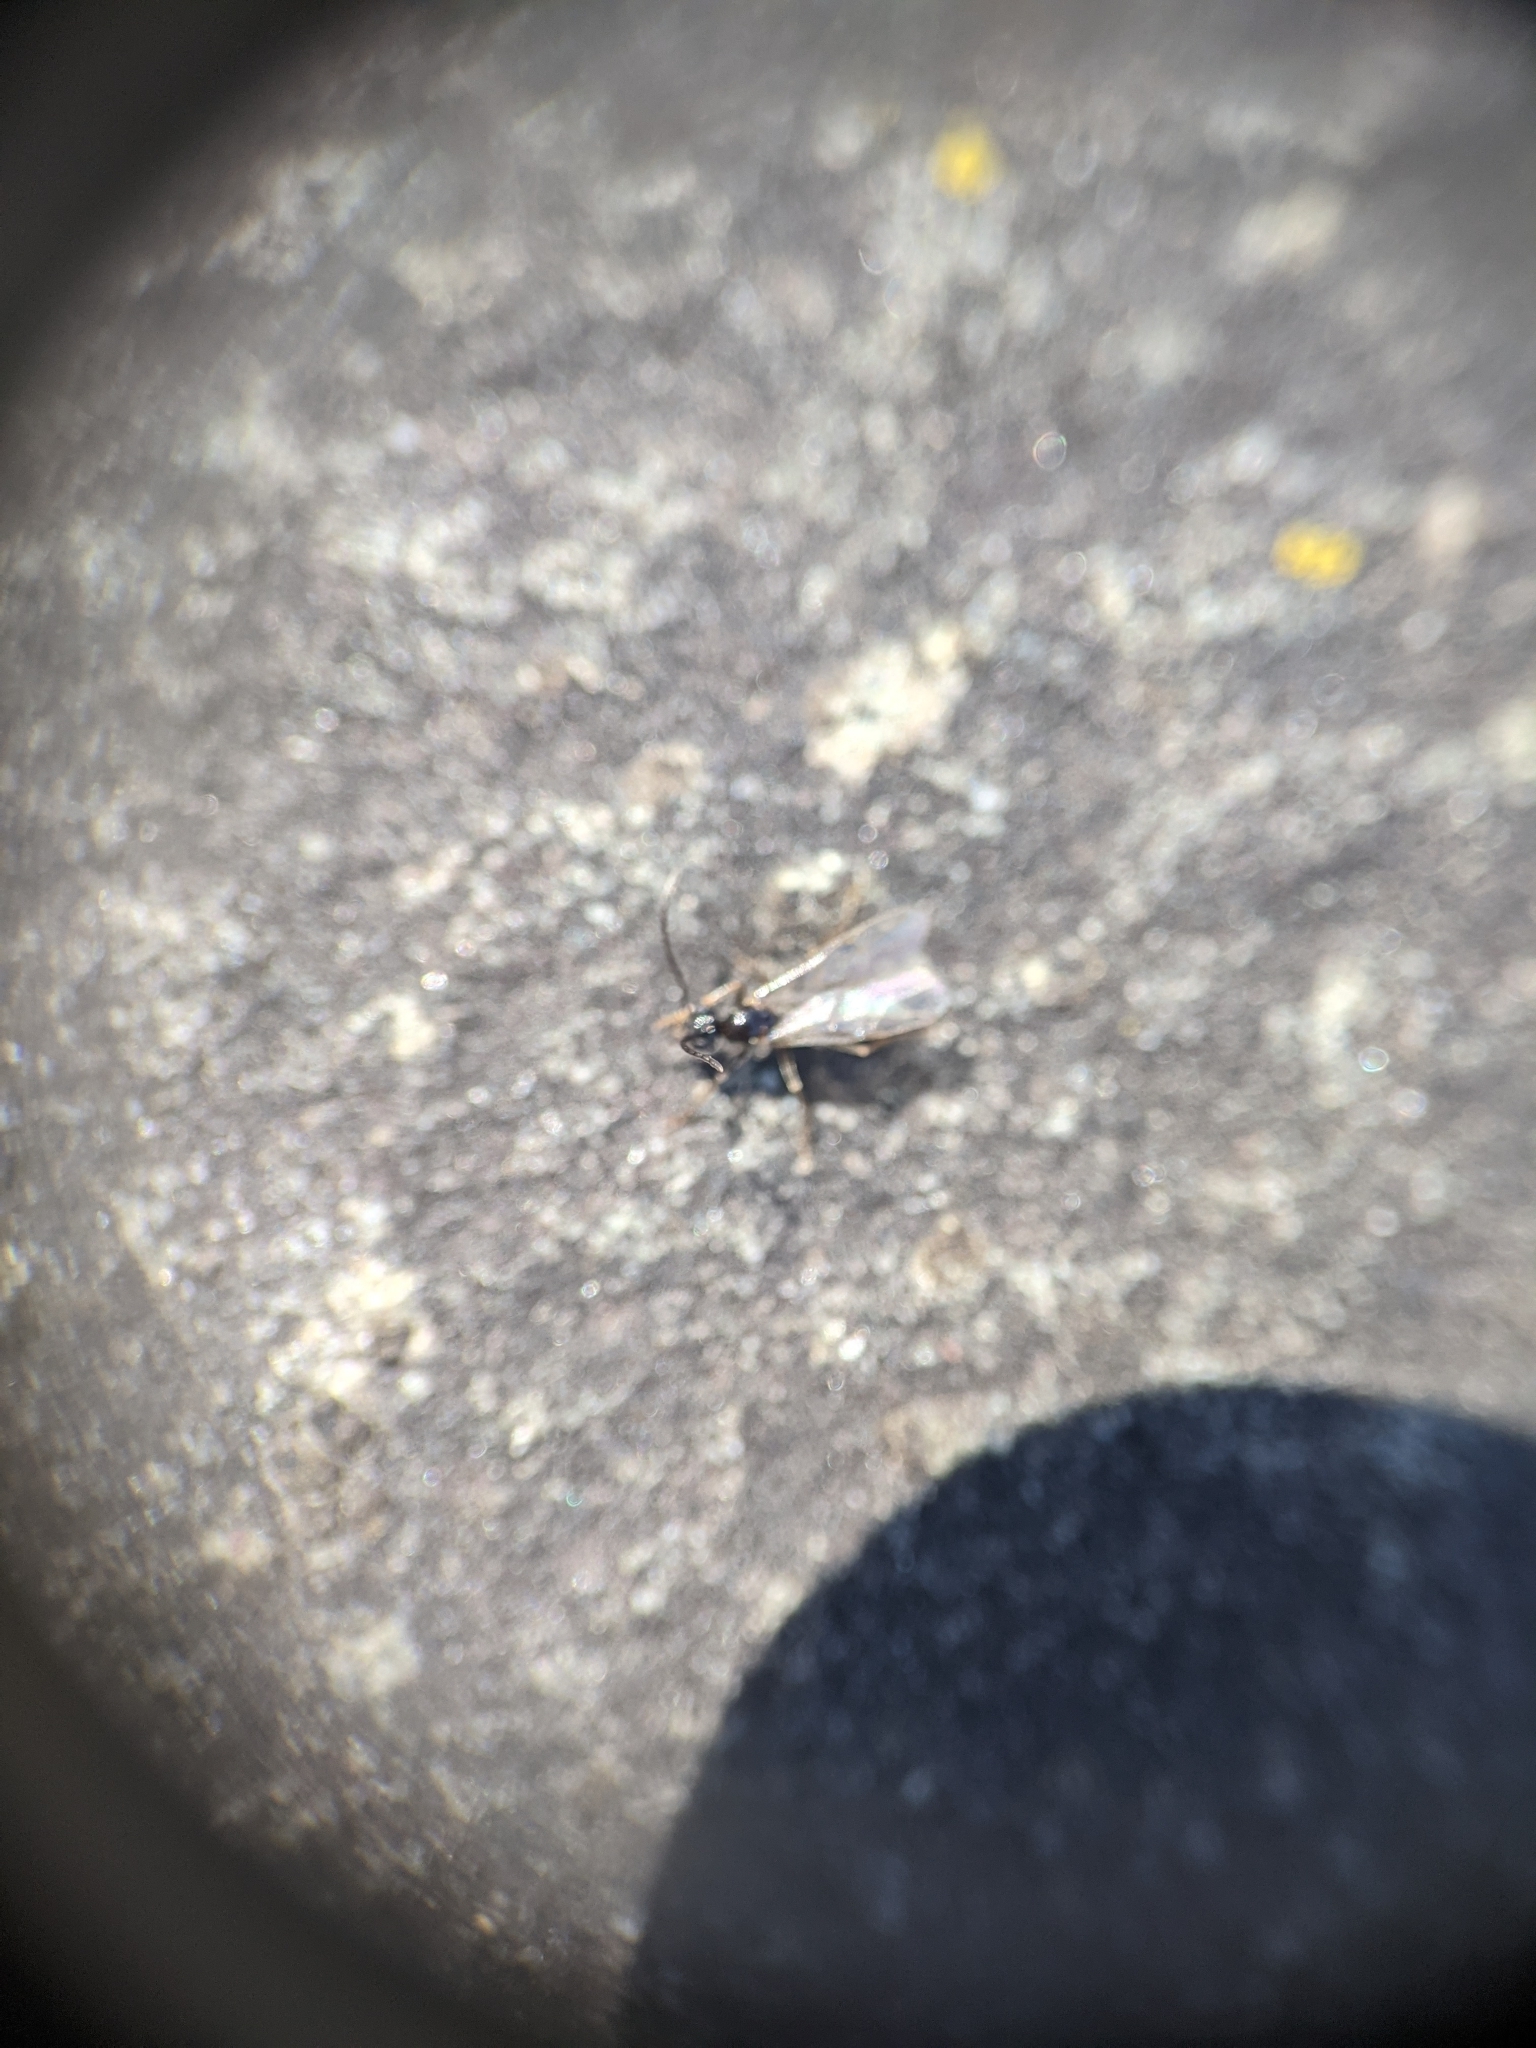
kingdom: Animalia
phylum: Arthropoda
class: Insecta
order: Hymenoptera
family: Formicidae
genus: Prenolepis
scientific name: Prenolepis imparis
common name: Small honey ant
